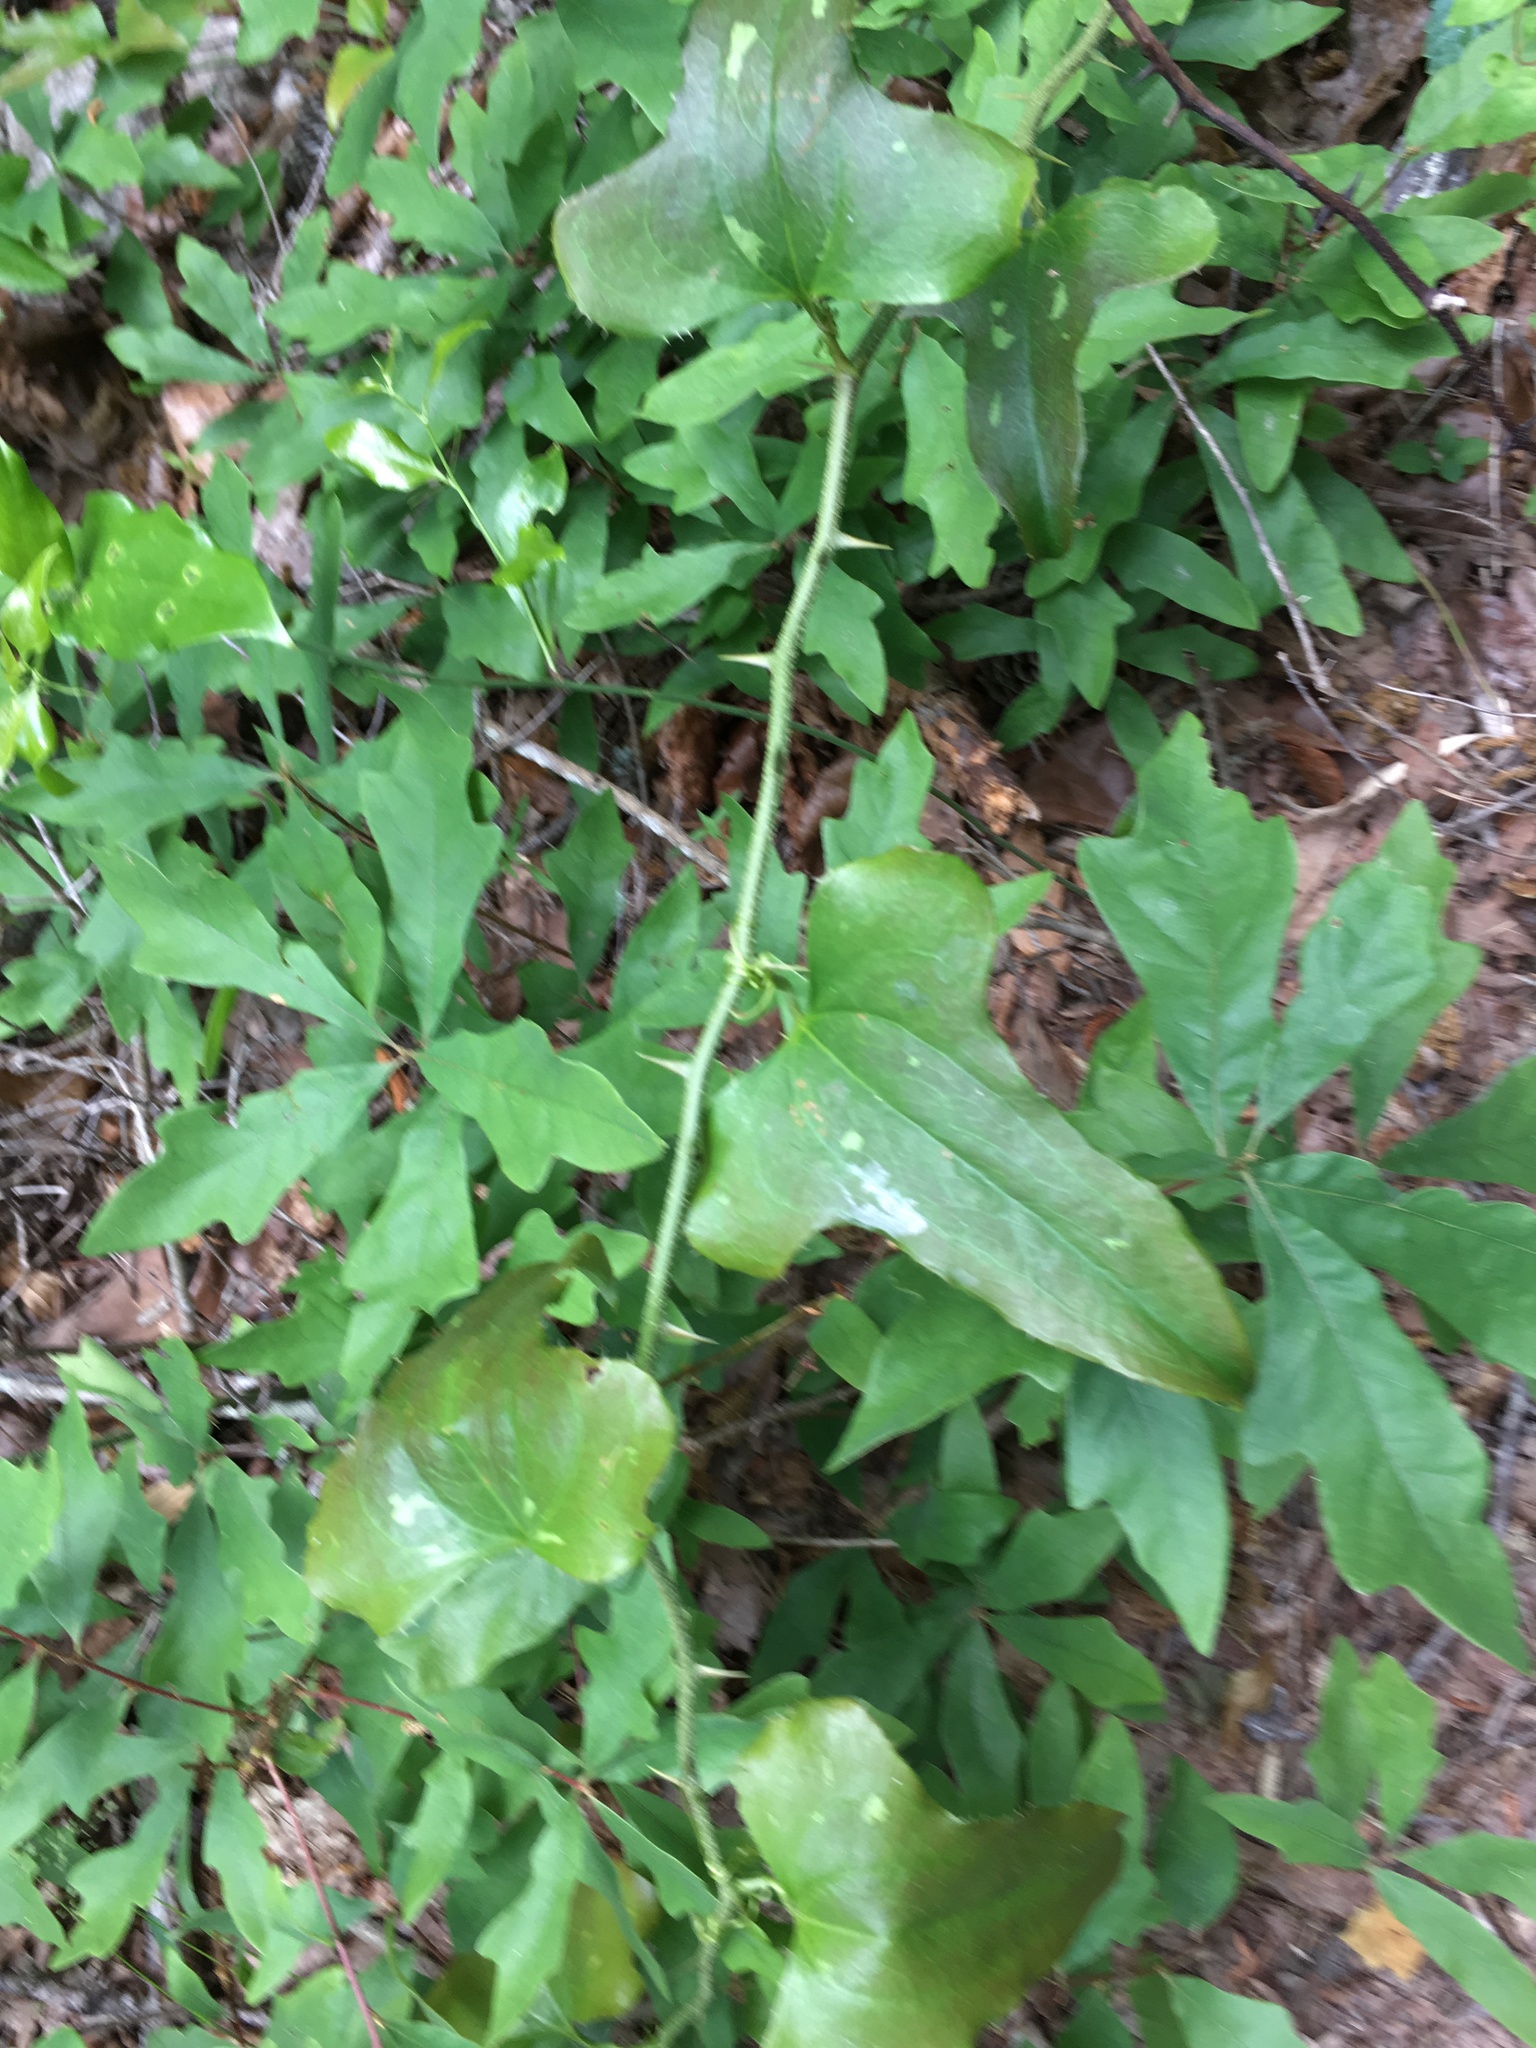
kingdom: Plantae
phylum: Tracheophyta
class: Liliopsida
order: Liliales
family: Smilacaceae
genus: Smilax
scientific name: Smilax bona-nox
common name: Catbrier
